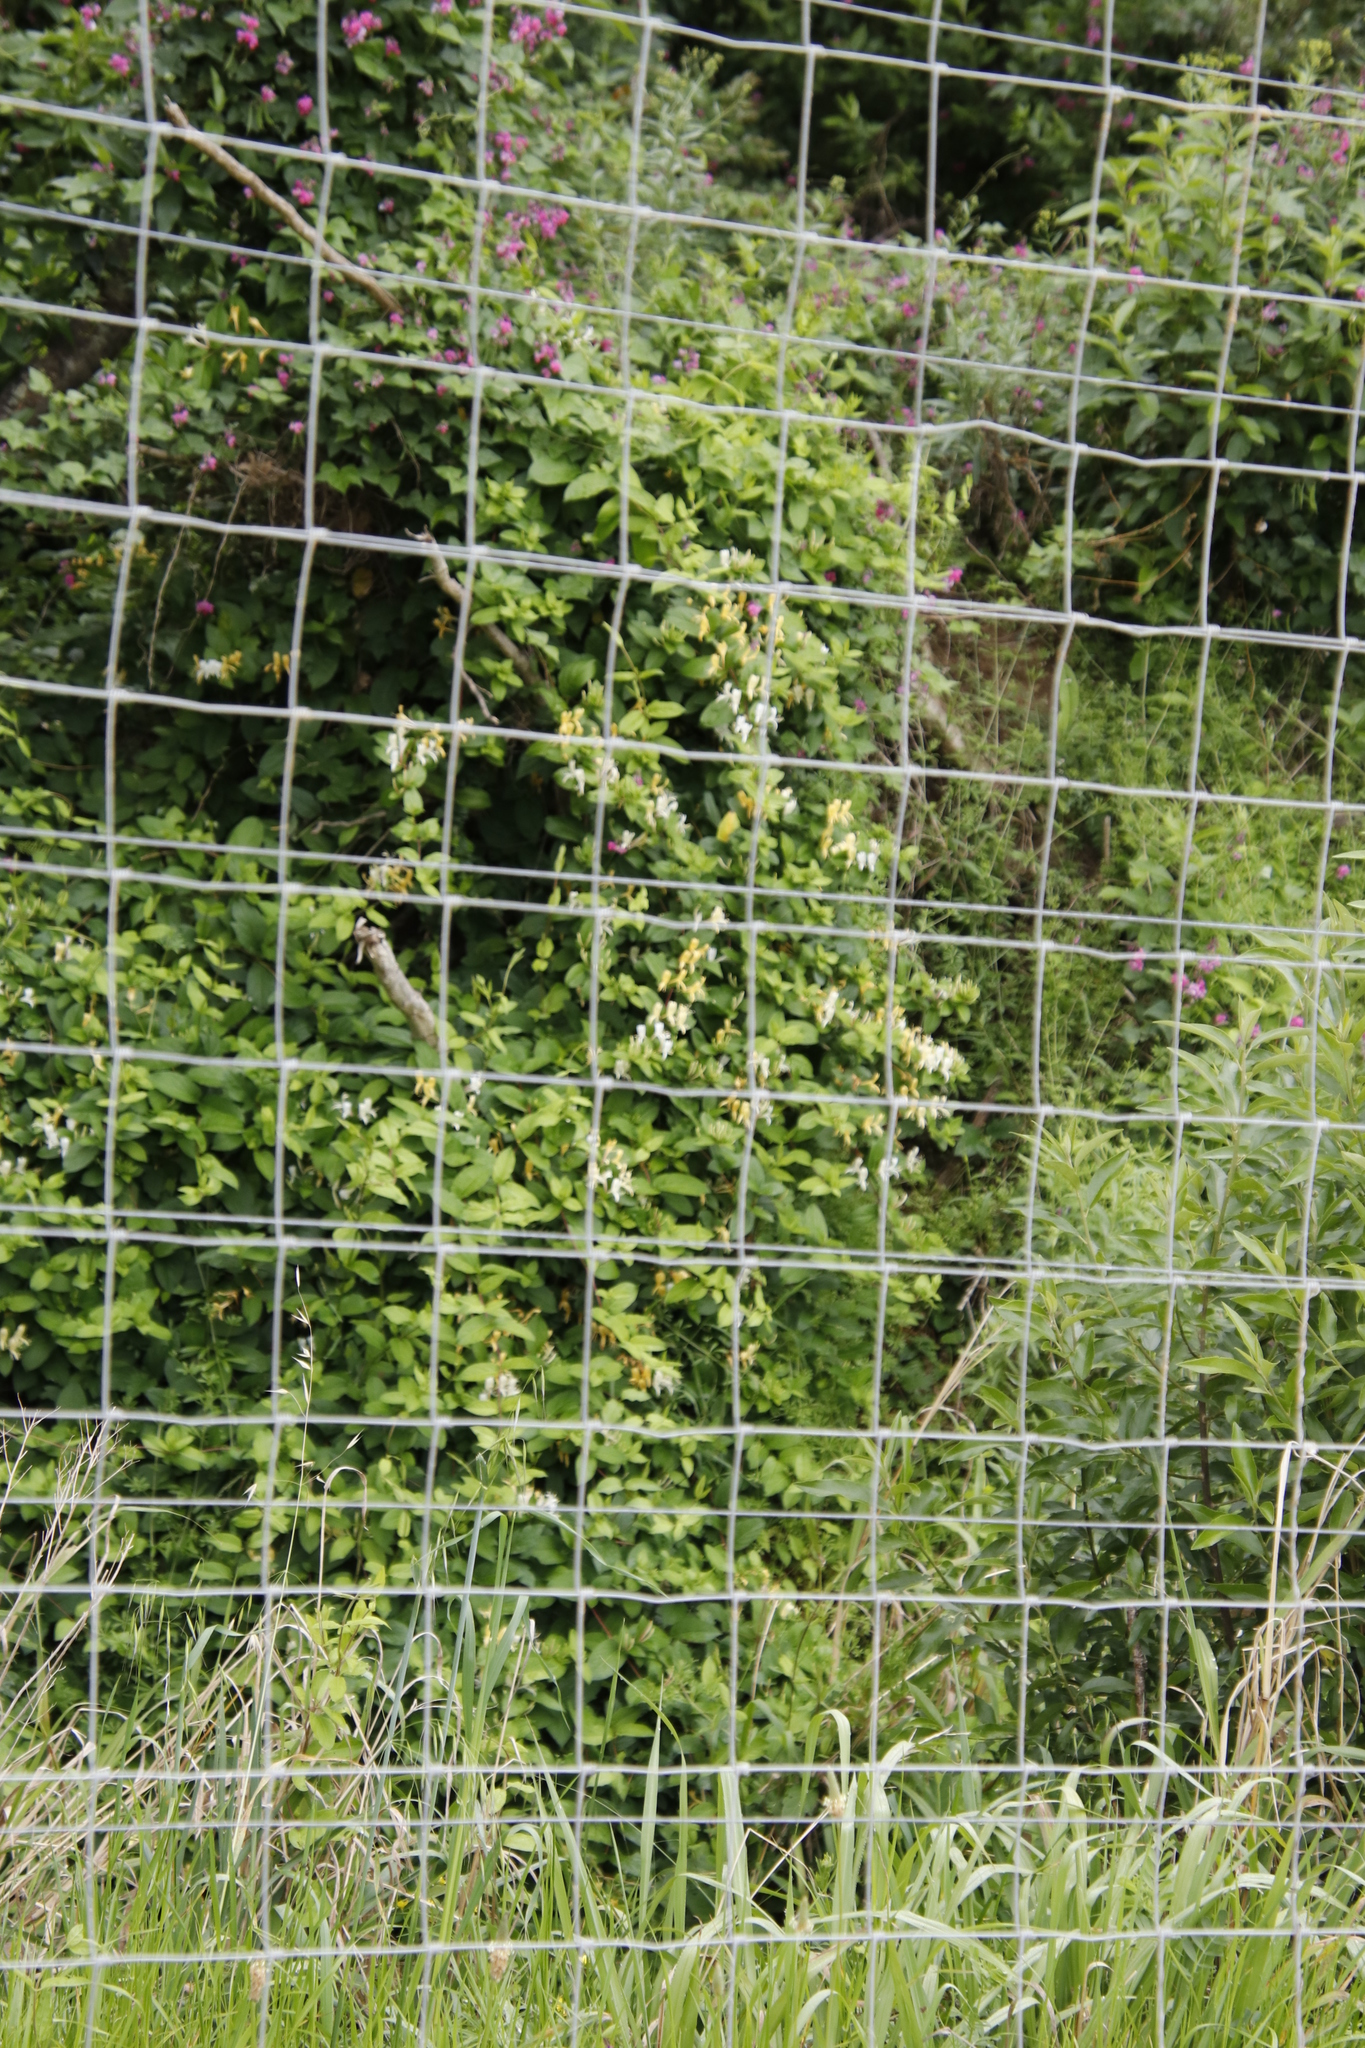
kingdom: Plantae
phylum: Tracheophyta
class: Magnoliopsida
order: Dipsacales
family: Caprifoliaceae
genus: Lonicera
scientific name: Lonicera japonica
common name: Japanese honeysuckle
